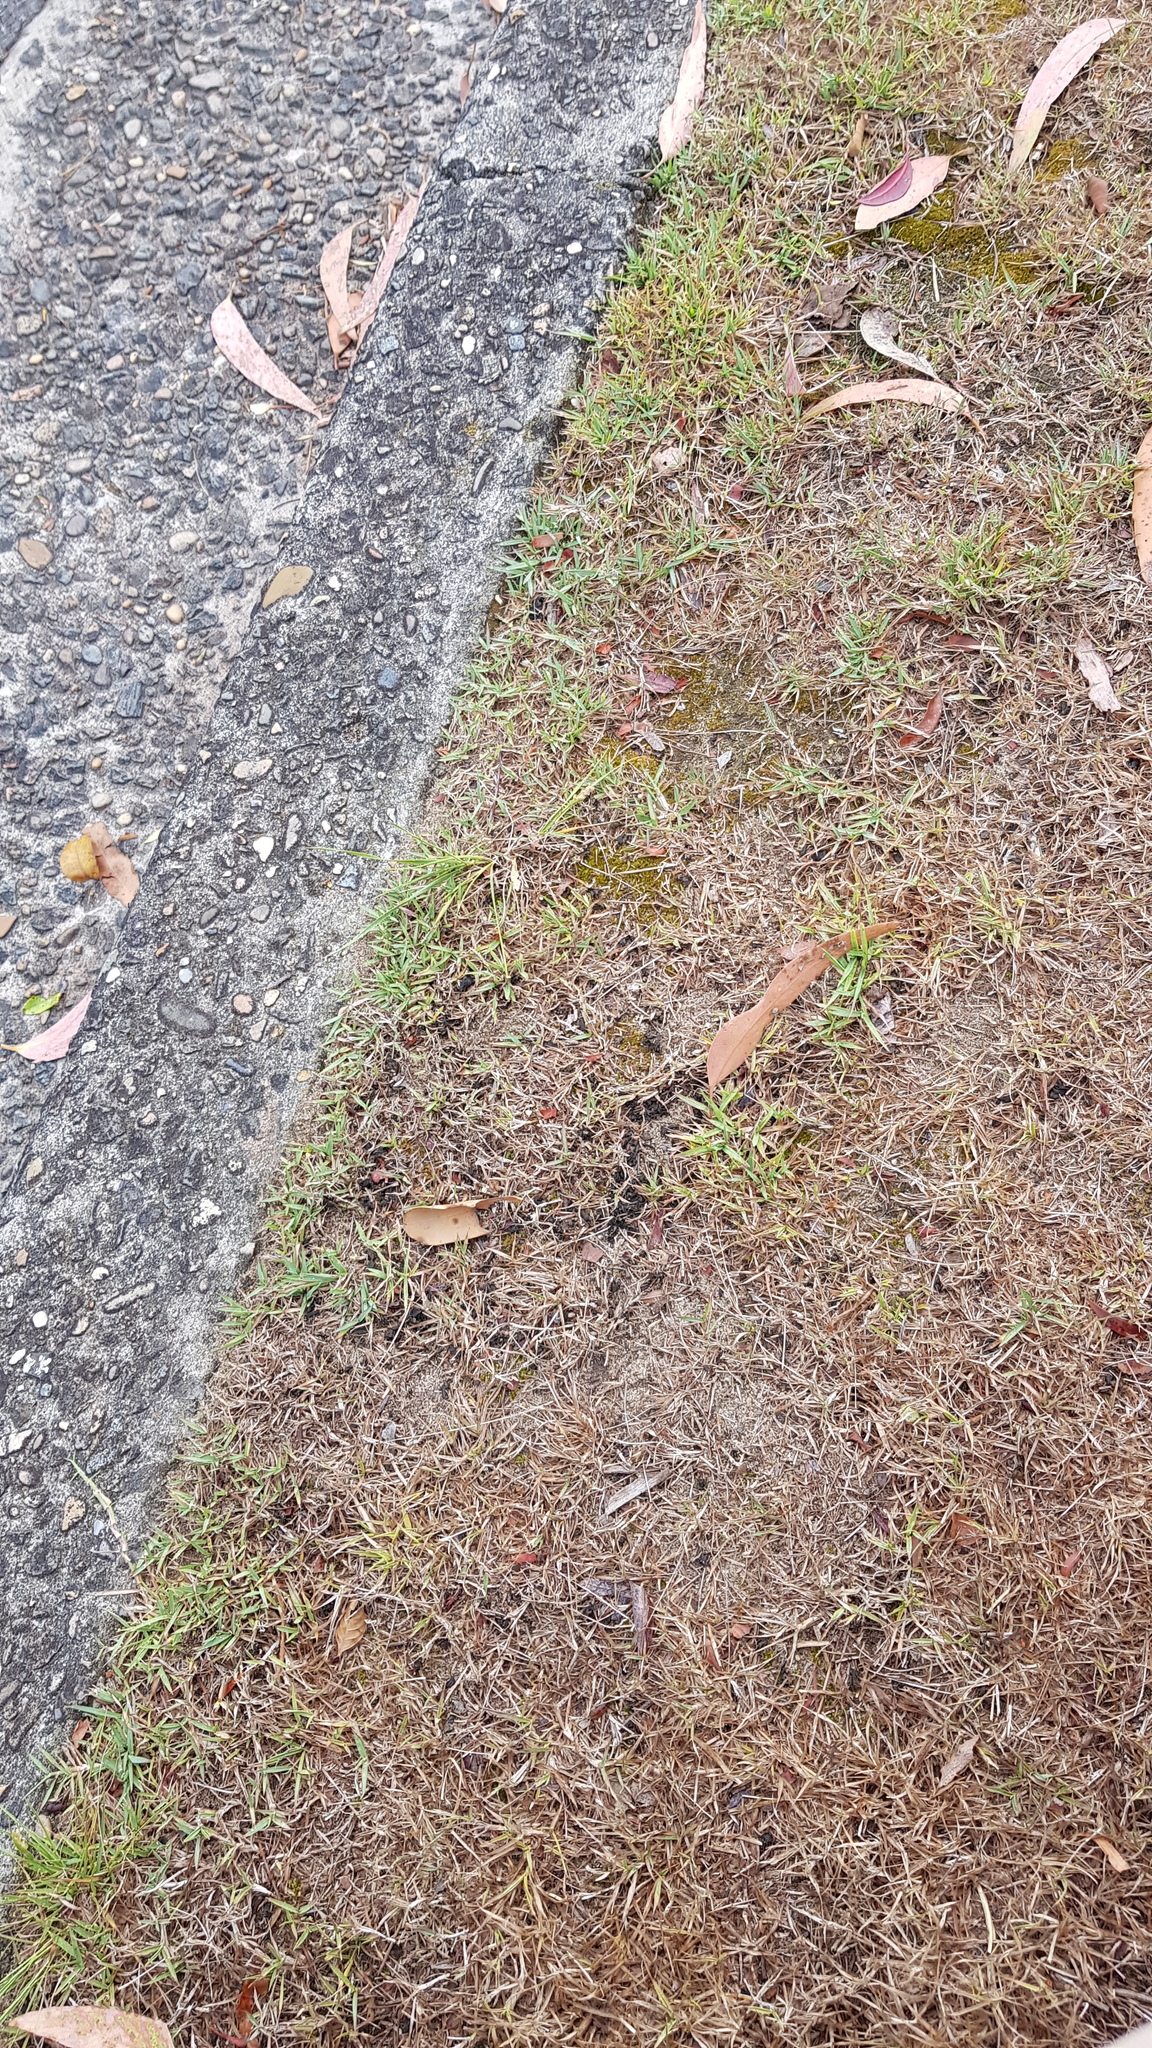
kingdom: Bacteria
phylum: Cyanobacteria
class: Cyanobacteriia
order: Cyanobacteriales
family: Nostocaceae
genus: Nostoc
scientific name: Nostoc commune
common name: Star jelly
